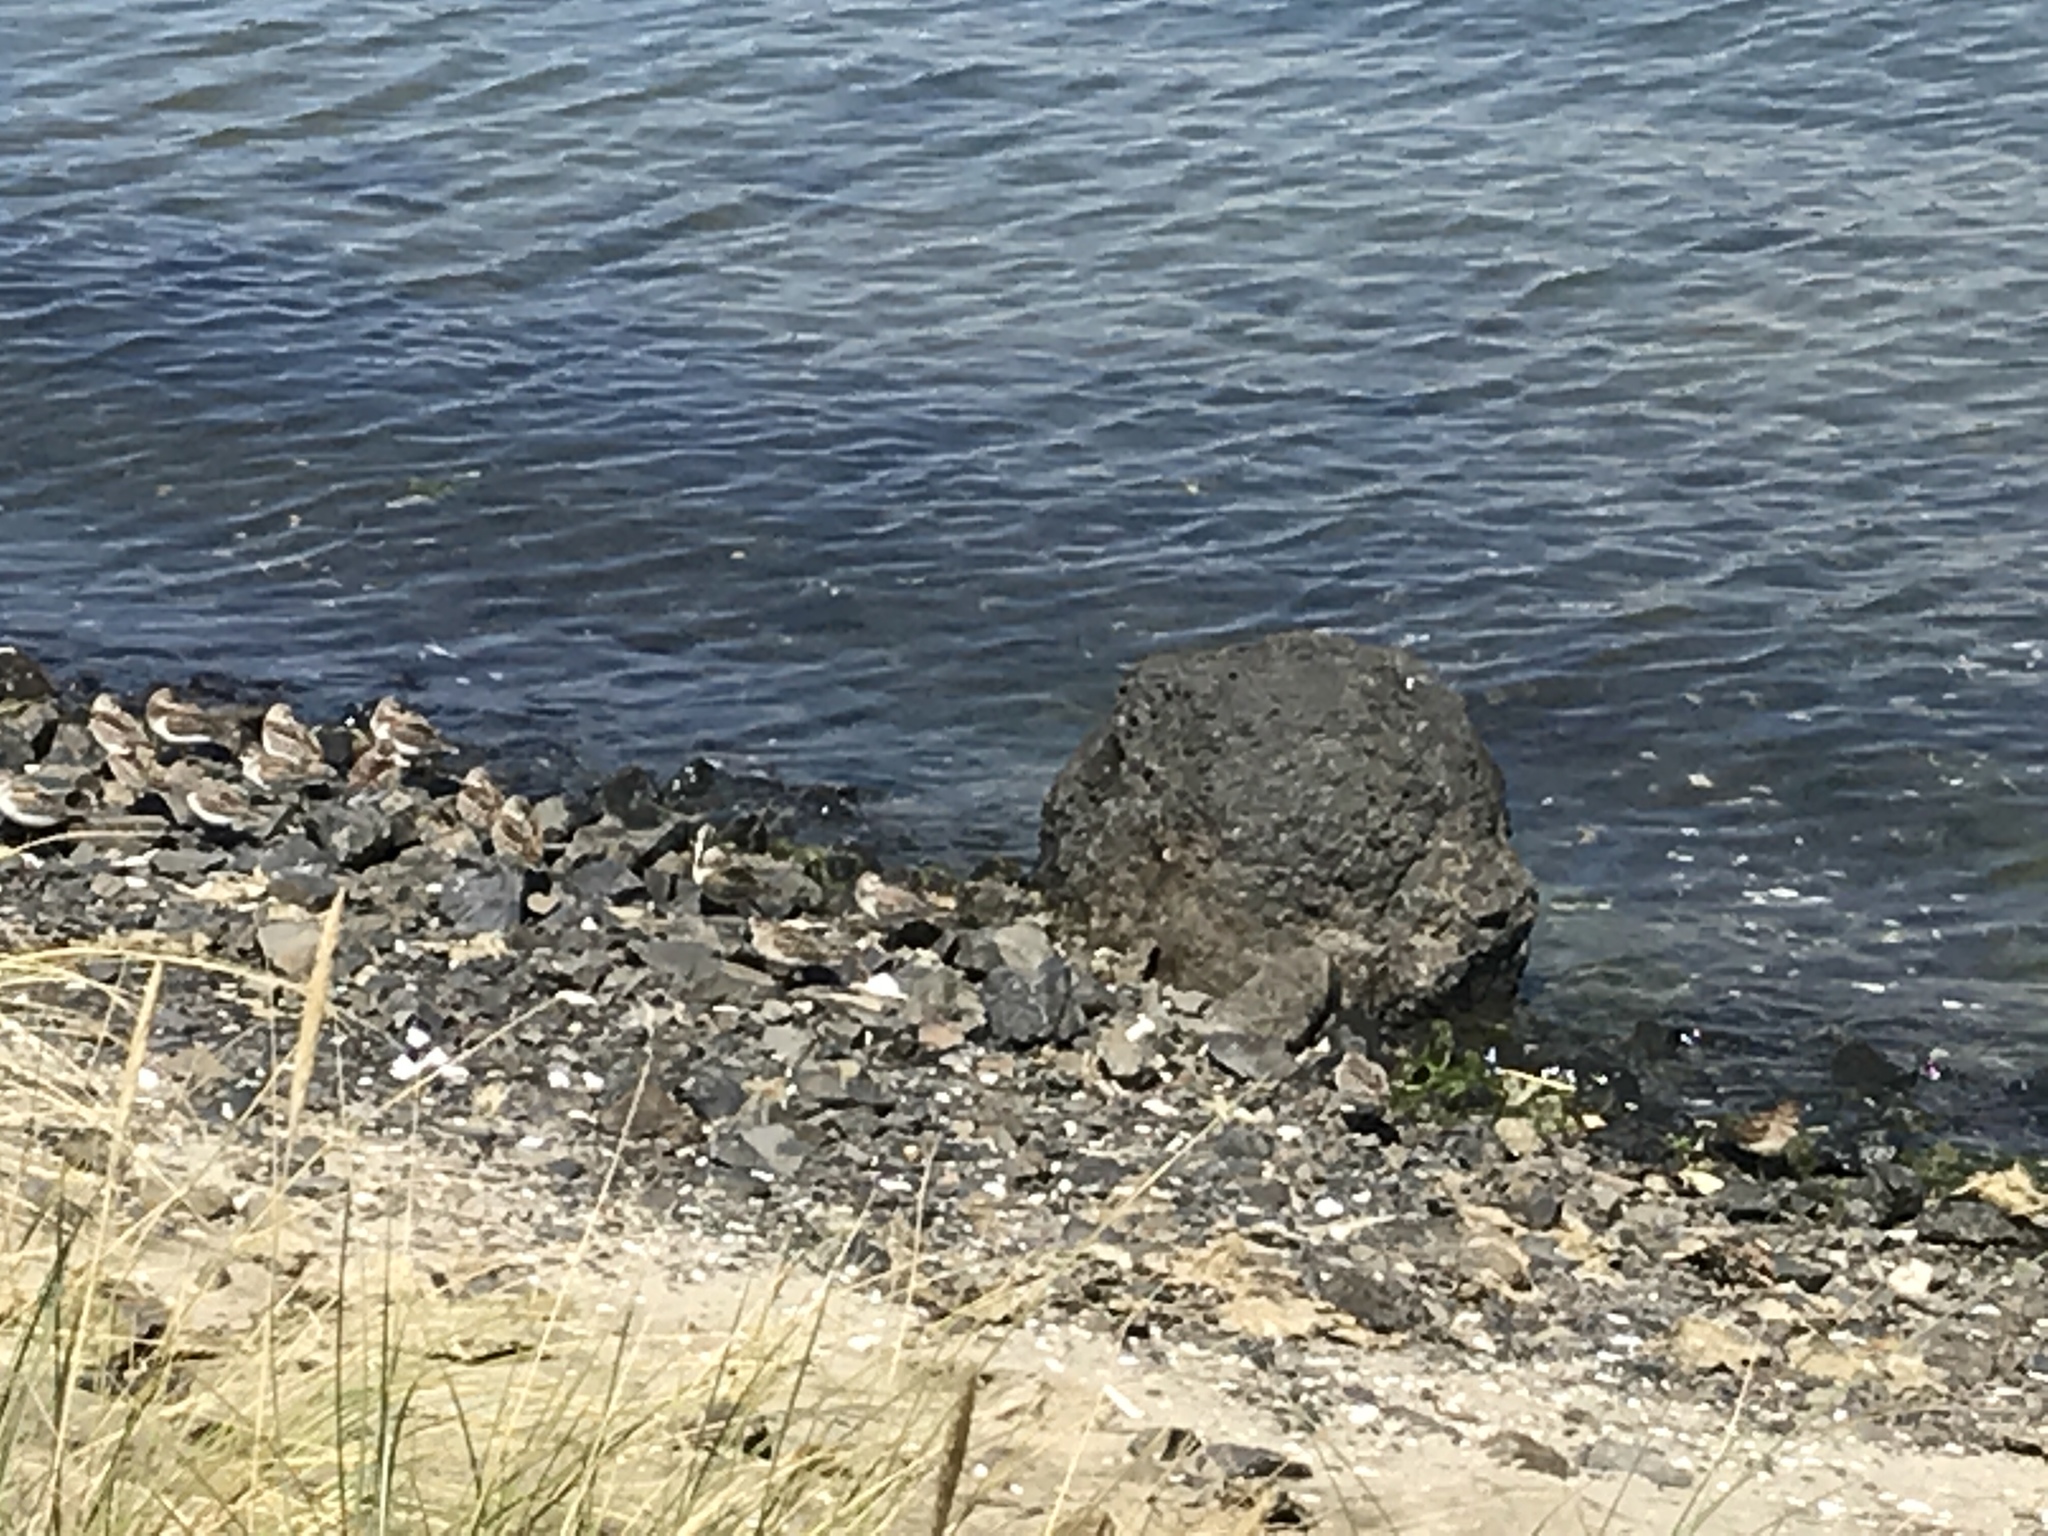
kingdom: Animalia
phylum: Chordata
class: Aves
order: Charadriiformes
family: Scolopacidae
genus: Calidris
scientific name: Calidris
